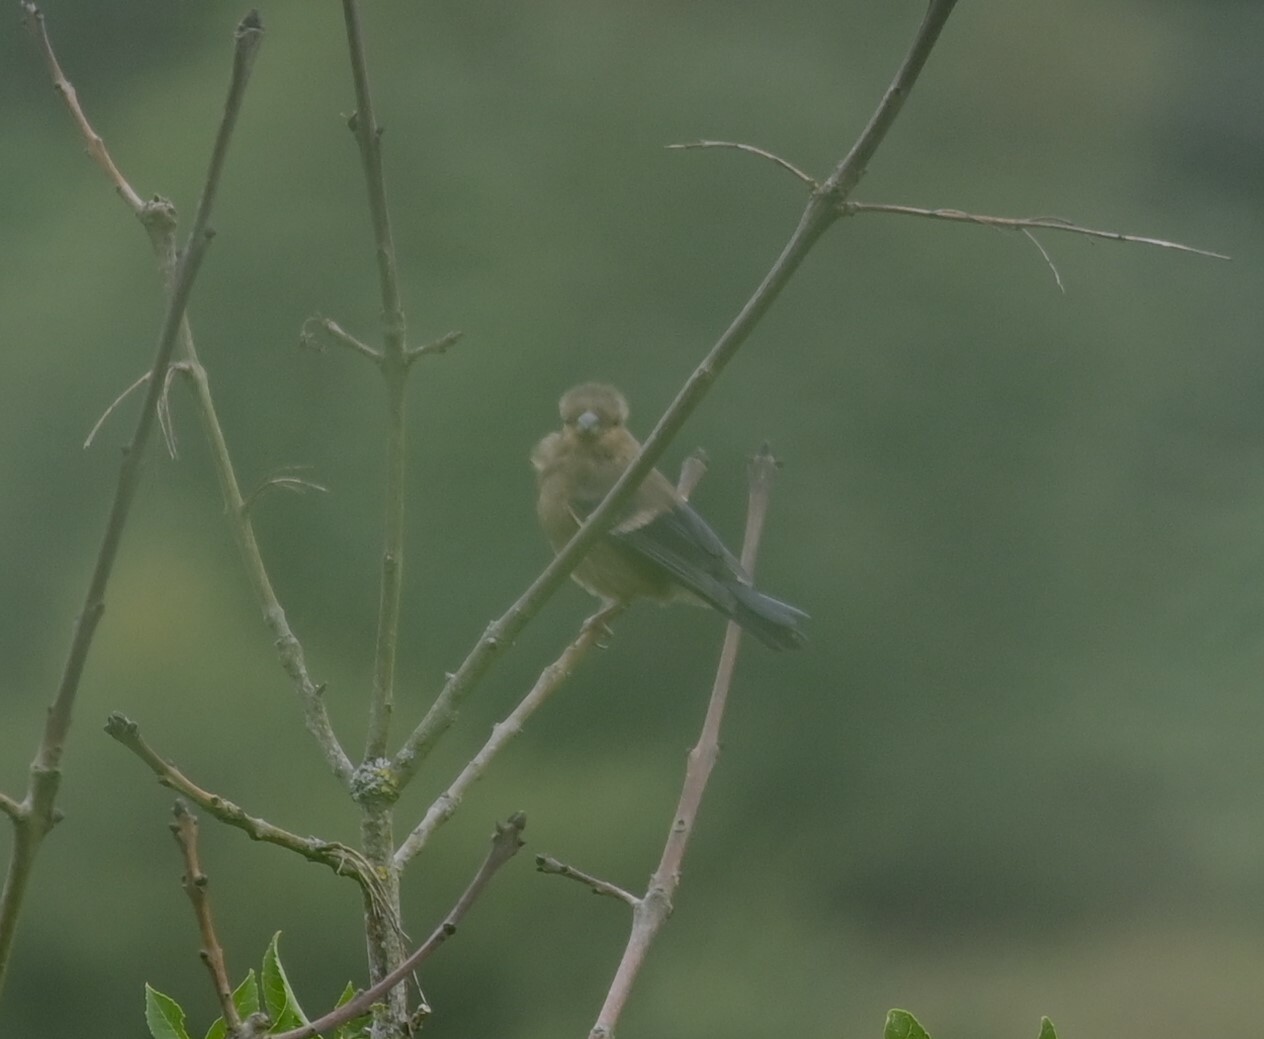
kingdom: Animalia
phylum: Chordata
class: Aves
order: Passeriformes
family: Fringillidae
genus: Pyrrhula
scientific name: Pyrrhula pyrrhula
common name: Eurasian bullfinch
